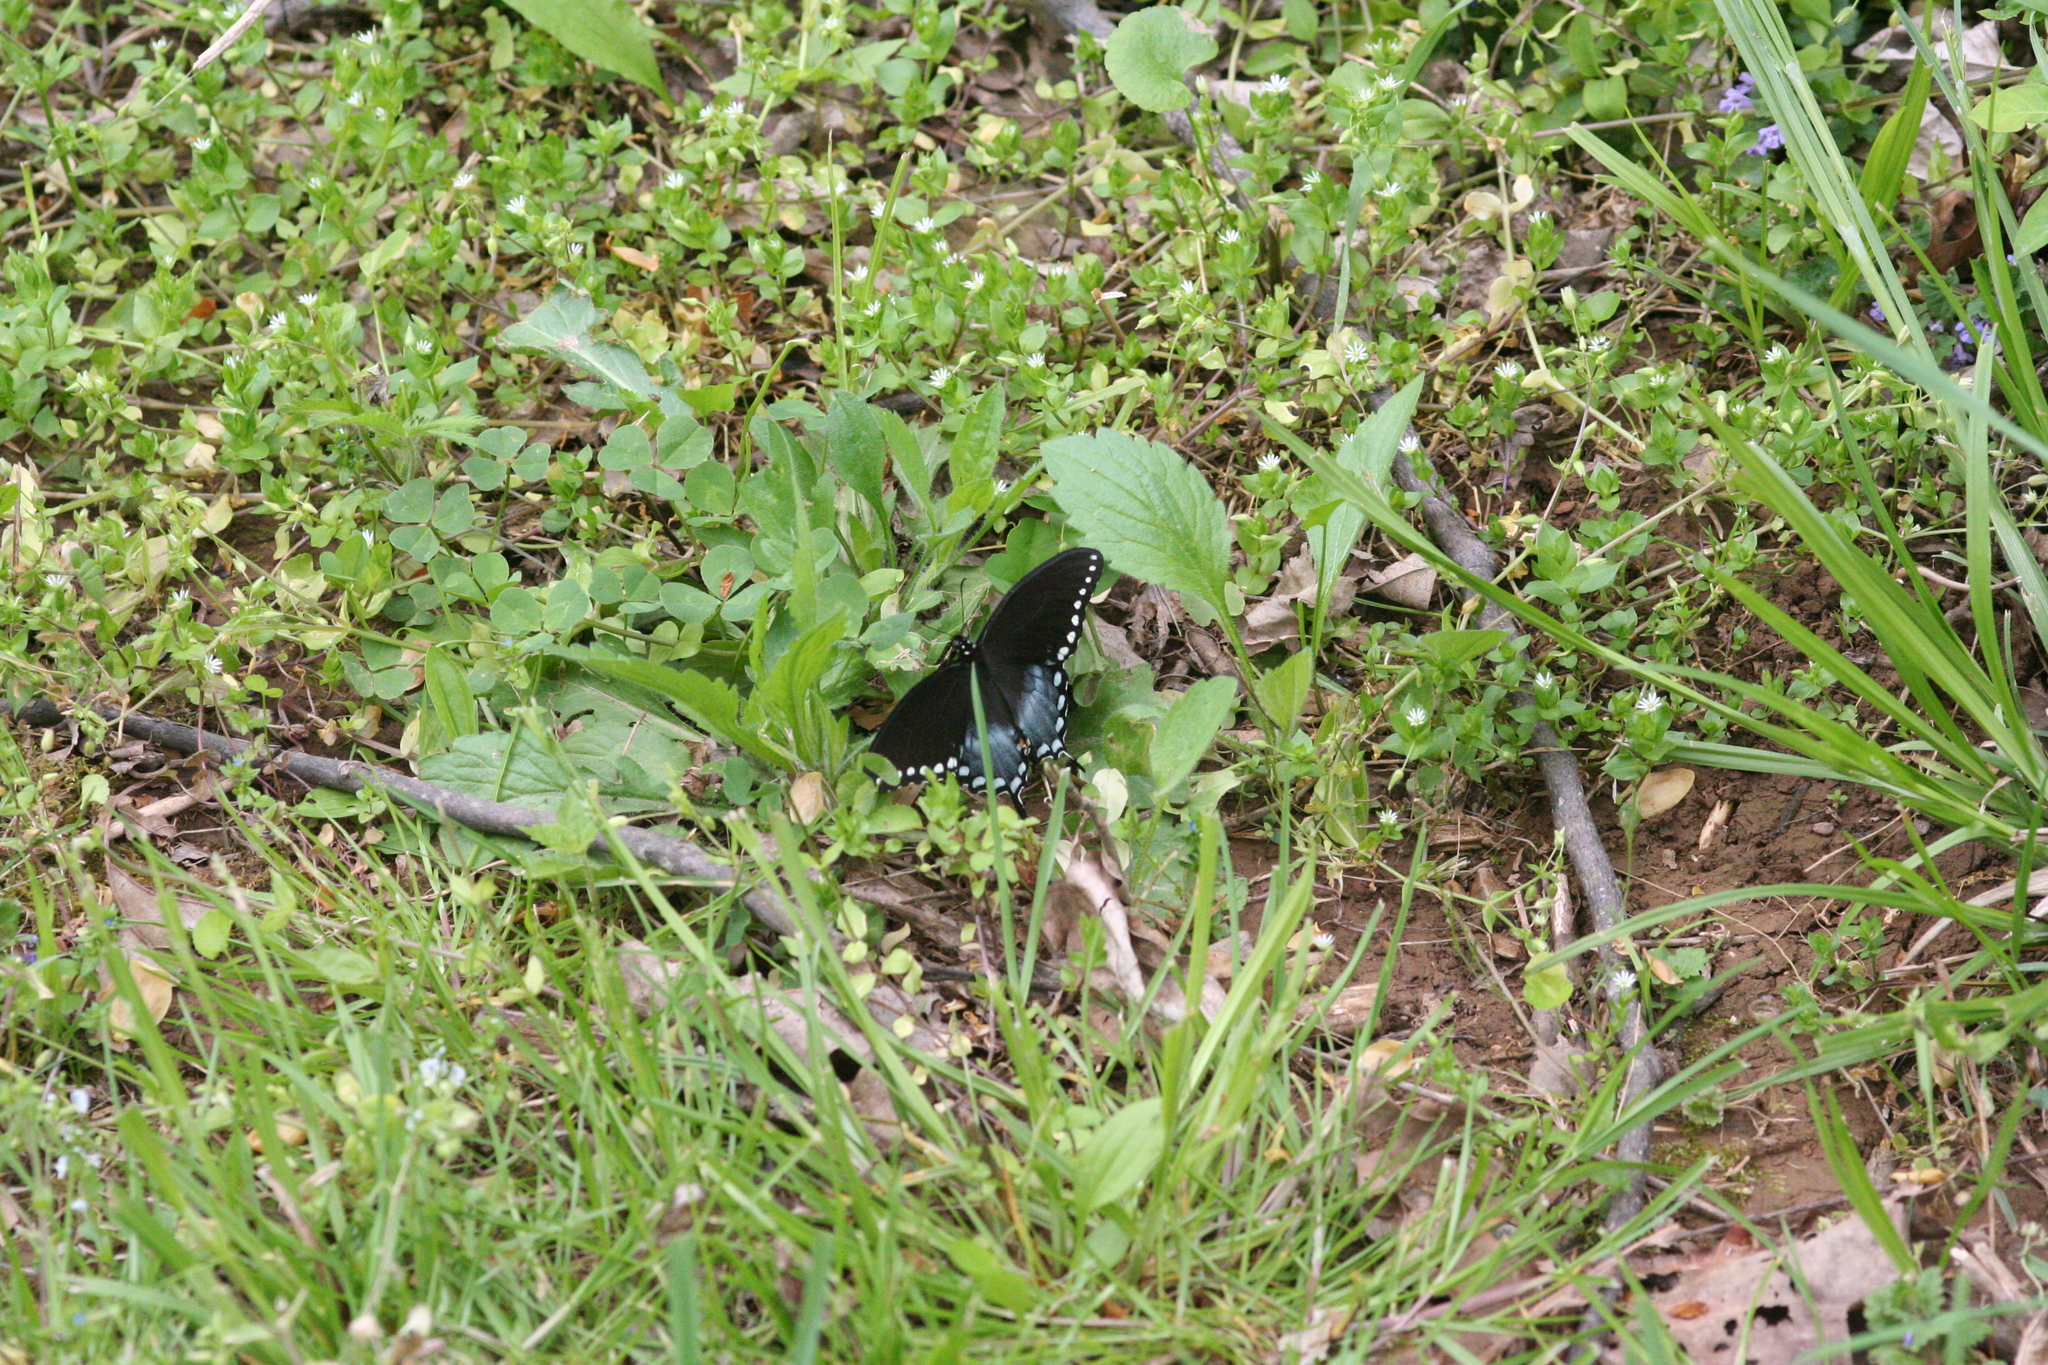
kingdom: Animalia
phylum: Arthropoda
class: Insecta
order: Lepidoptera
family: Papilionidae
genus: Papilio
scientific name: Papilio troilus
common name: Spicebush swallowtail
